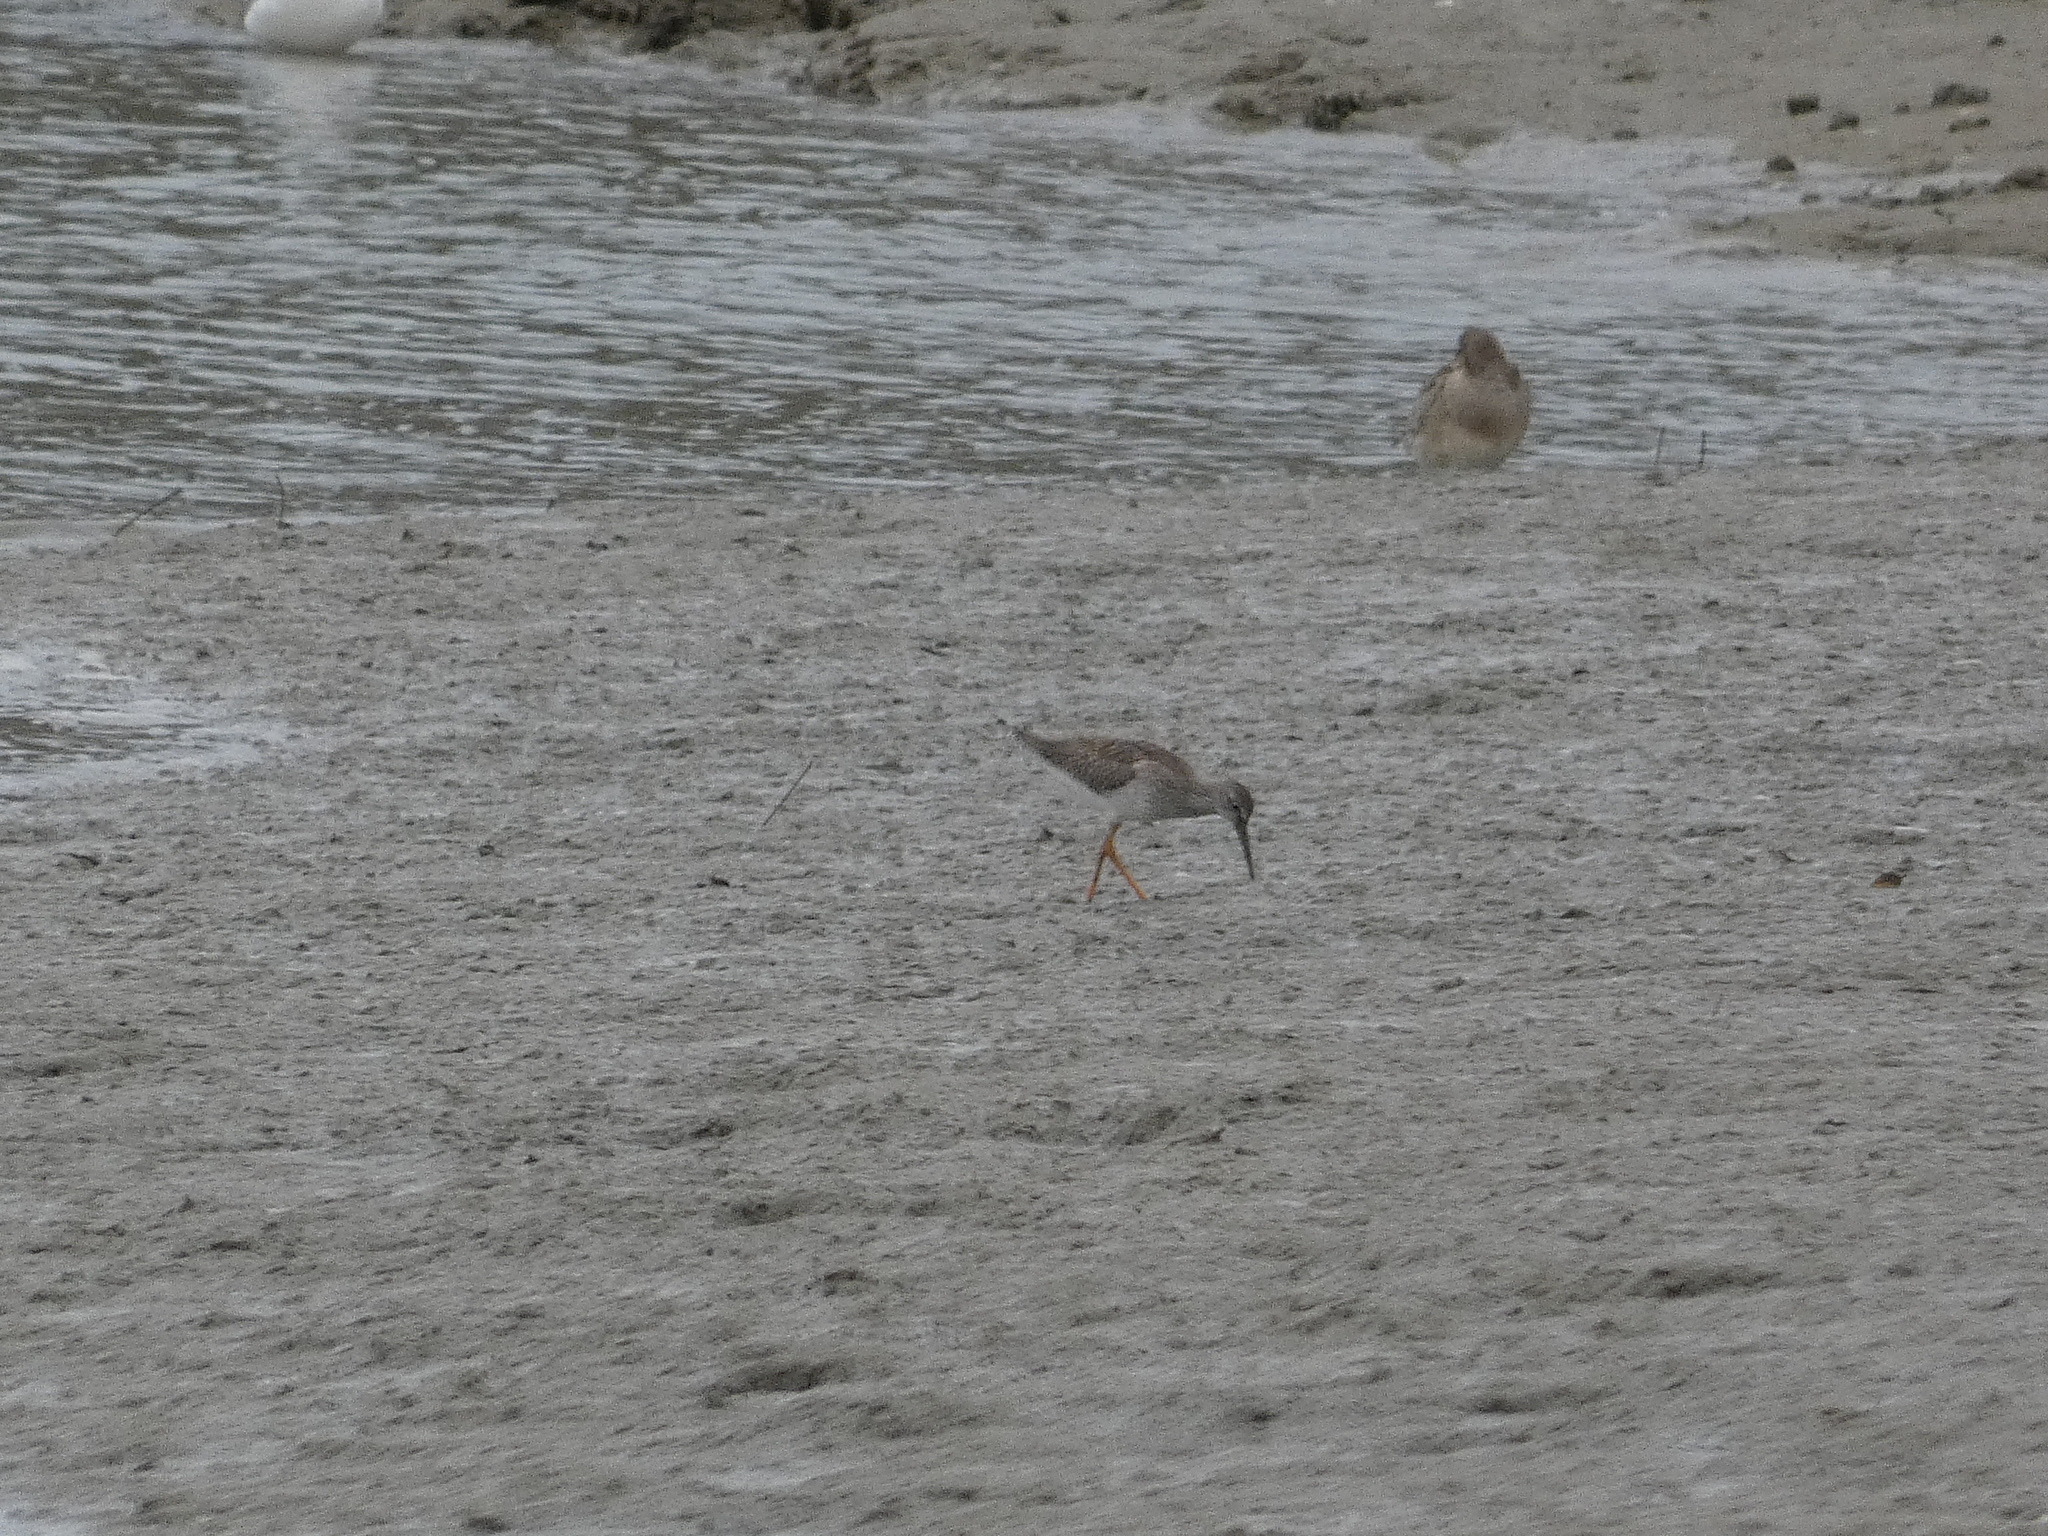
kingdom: Animalia
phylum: Chordata
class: Aves
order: Charadriiformes
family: Scolopacidae
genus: Tringa
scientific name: Tringa totanus
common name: Common redshank
